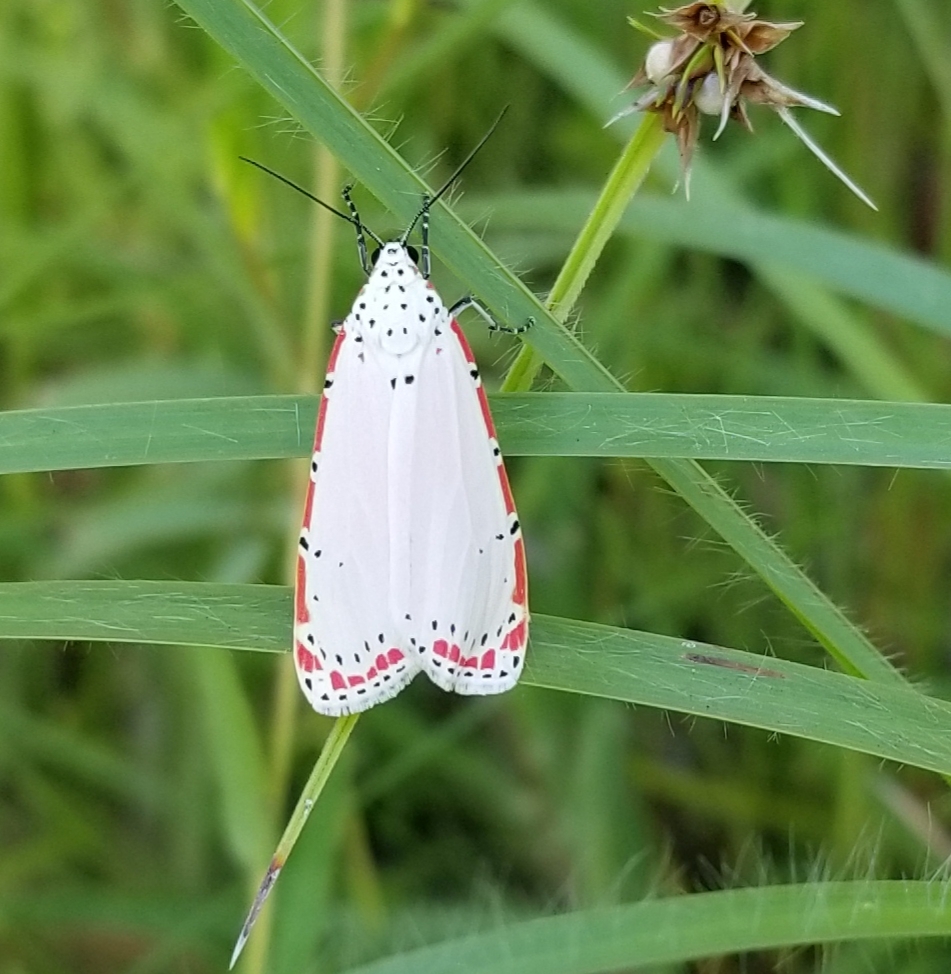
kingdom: Animalia
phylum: Arthropoda
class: Insecta
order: Lepidoptera
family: Erebidae
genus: Utetheisa
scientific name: Utetheisa ornatrix
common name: Beautiful utetheisa
